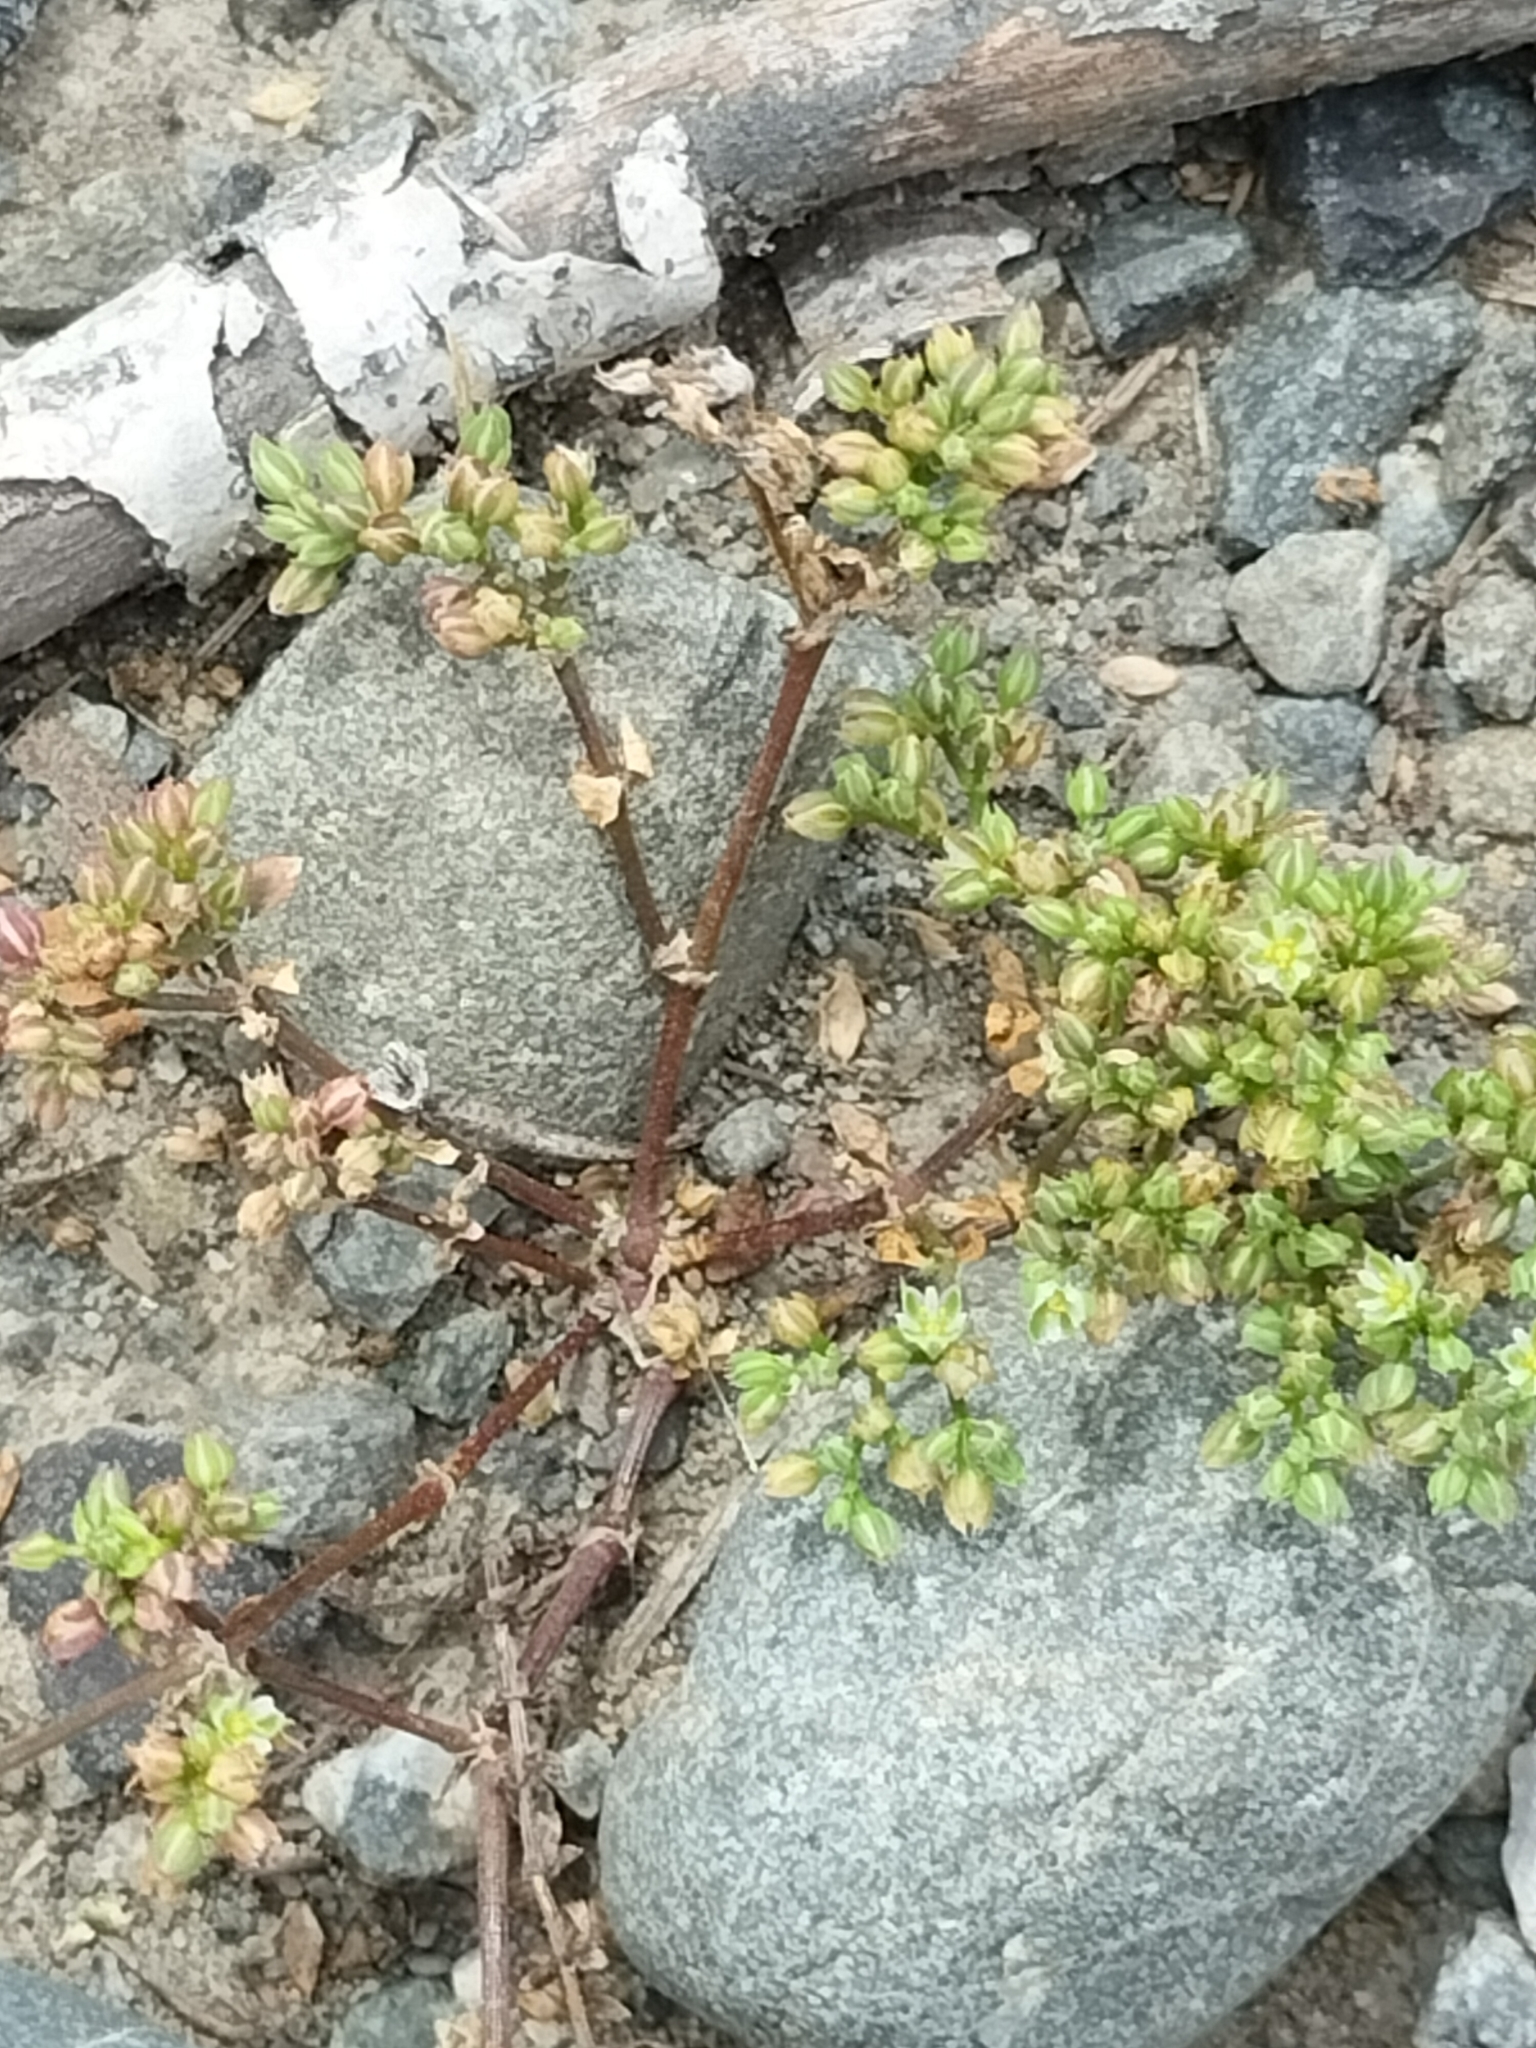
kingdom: Plantae
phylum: Tracheophyta
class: Magnoliopsida
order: Caryophyllales
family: Caryophyllaceae
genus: Polycarpon
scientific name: Polycarpon tetraphyllum
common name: Four-leaved all-seed
